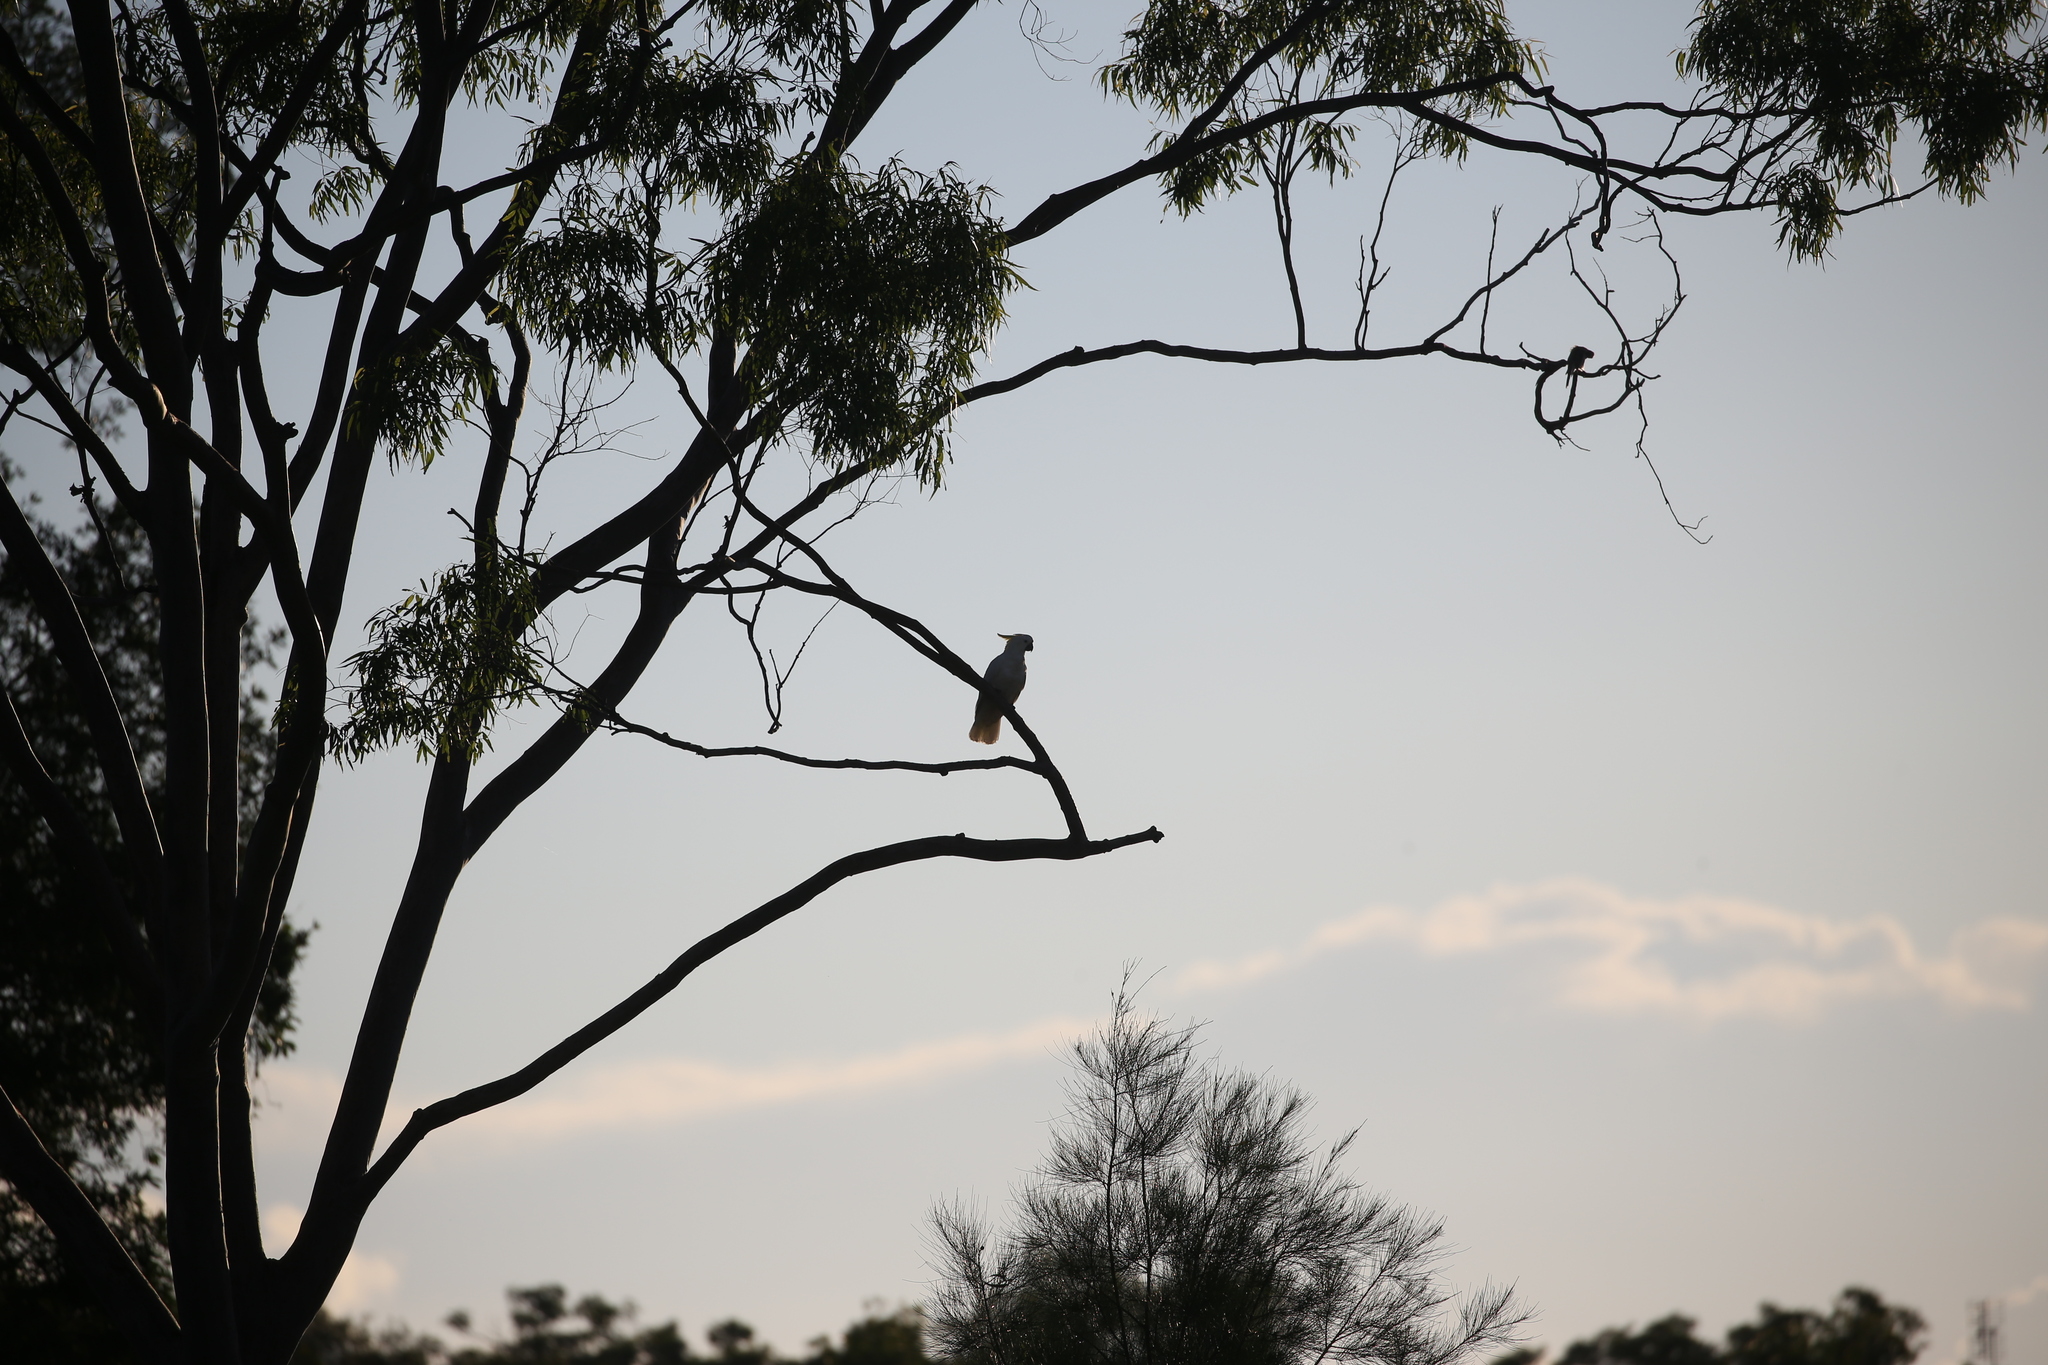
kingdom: Animalia
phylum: Chordata
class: Aves
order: Psittaciformes
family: Psittacidae
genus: Cacatua
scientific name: Cacatua galerita
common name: Sulphur-crested cockatoo
